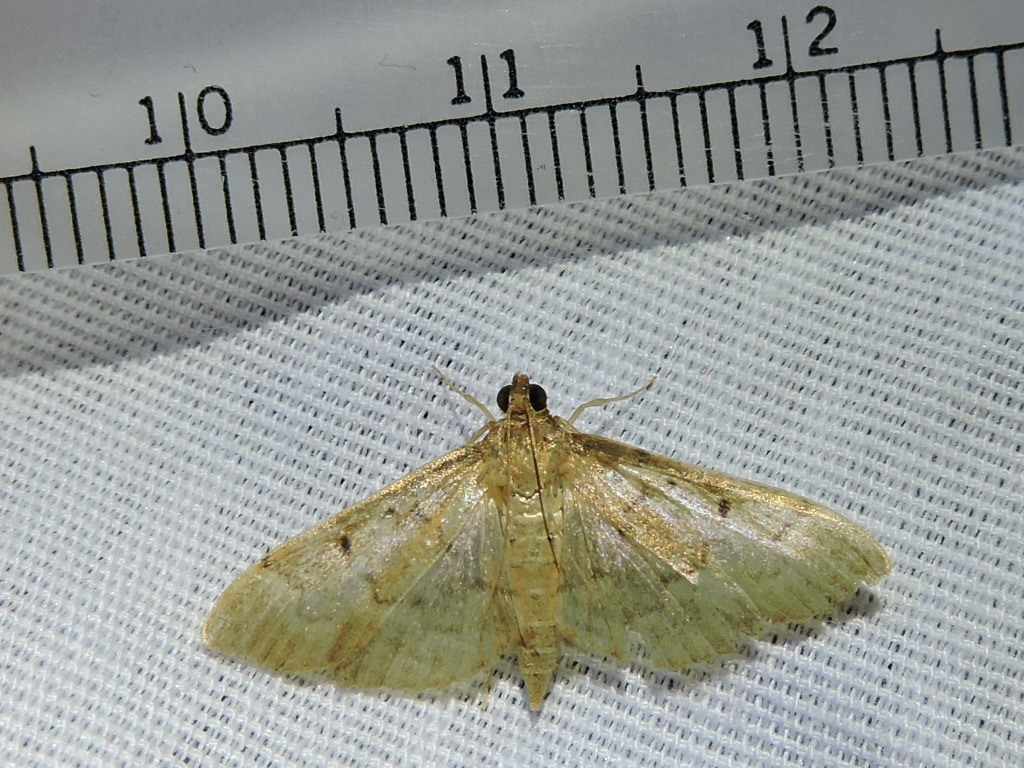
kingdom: Animalia
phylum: Arthropoda
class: Insecta
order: Lepidoptera
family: Crambidae
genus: Herpetogramma
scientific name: Herpetogramma bipunctalis
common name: Southern beet webworm
